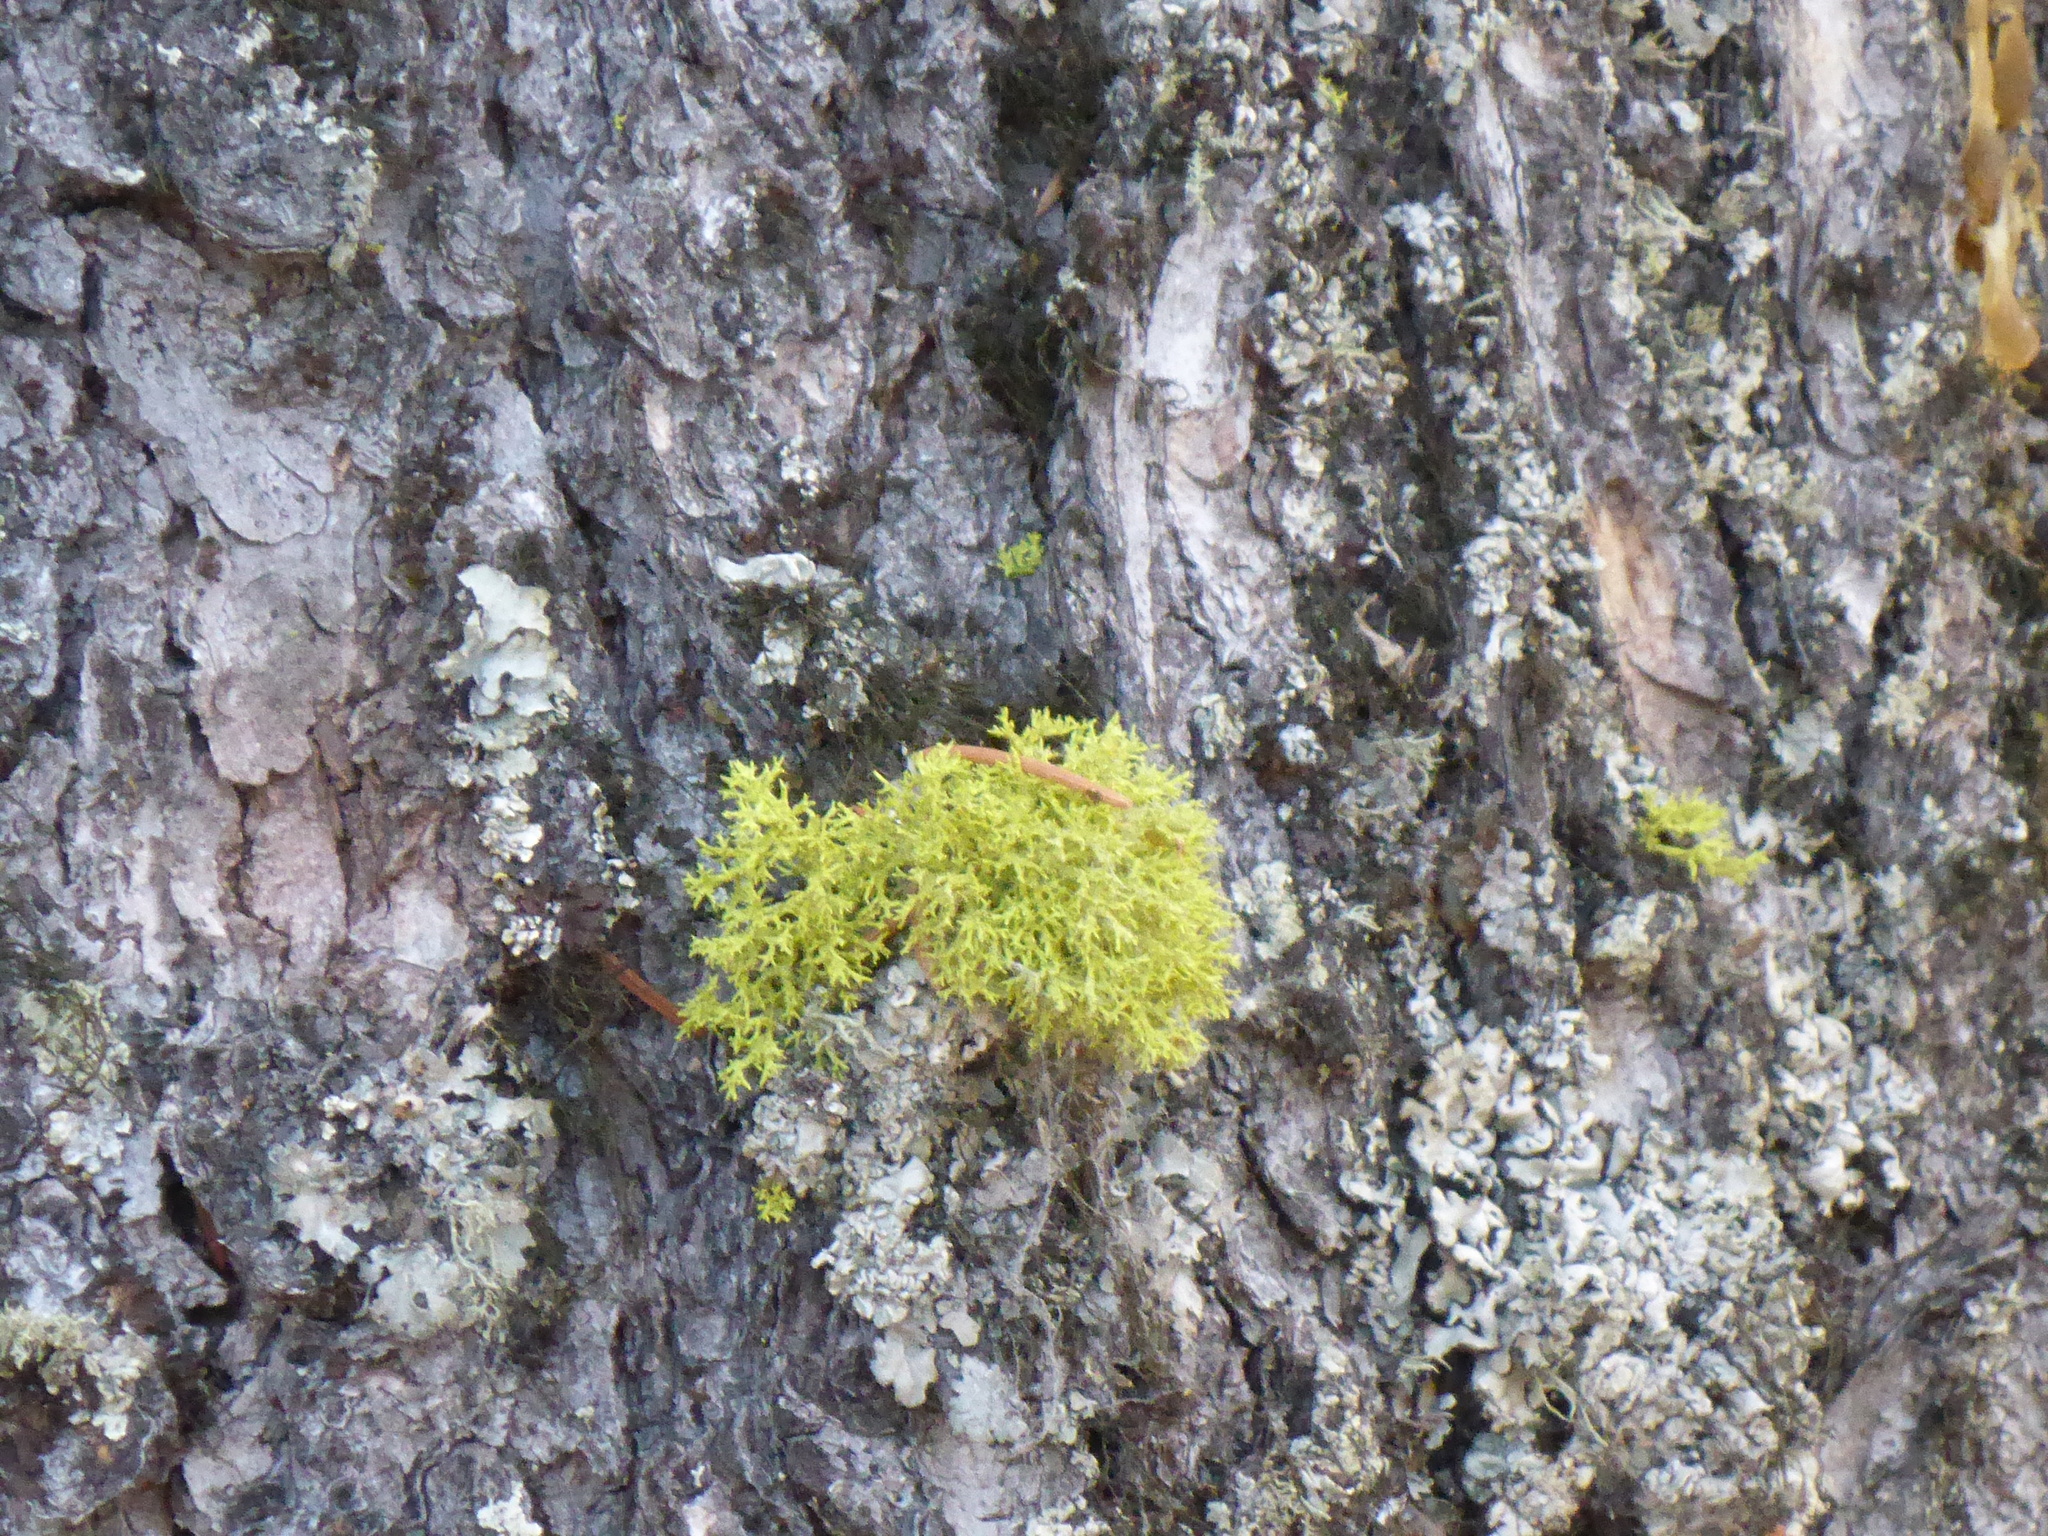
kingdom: Fungi
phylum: Ascomycota
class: Lecanoromycetes
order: Lecanorales
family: Parmeliaceae
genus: Letharia
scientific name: Letharia vulpina
